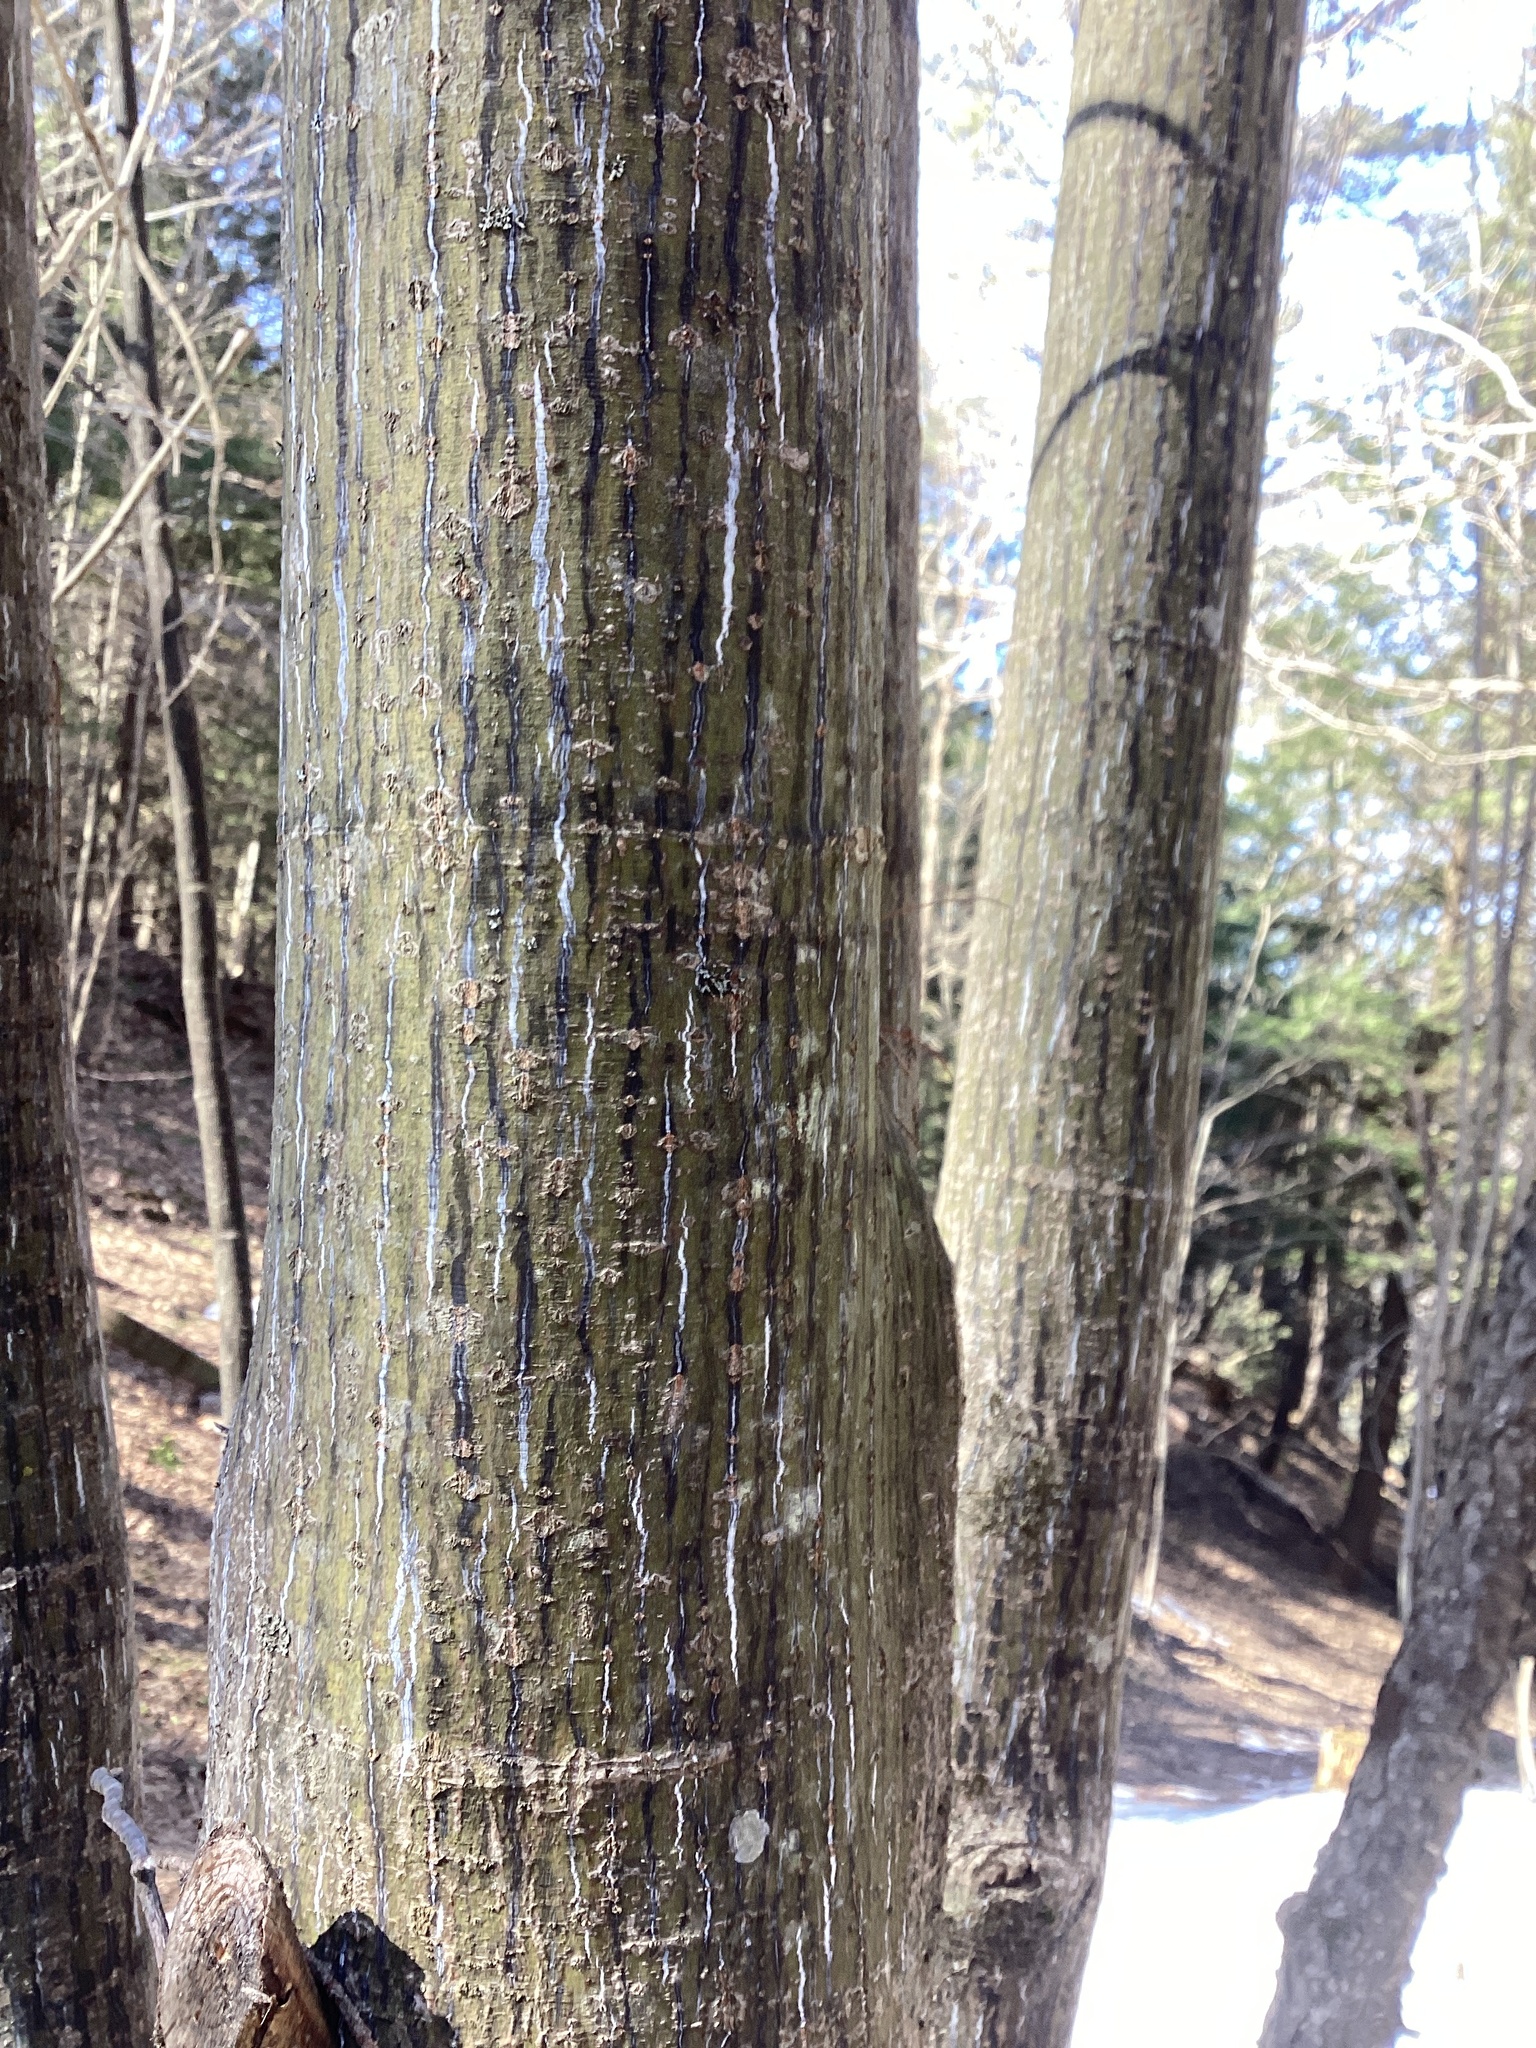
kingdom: Plantae
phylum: Tracheophyta
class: Magnoliopsida
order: Sapindales
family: Sapindaceae
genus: Acer
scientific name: Acer pensylvanicum
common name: Moosewood
